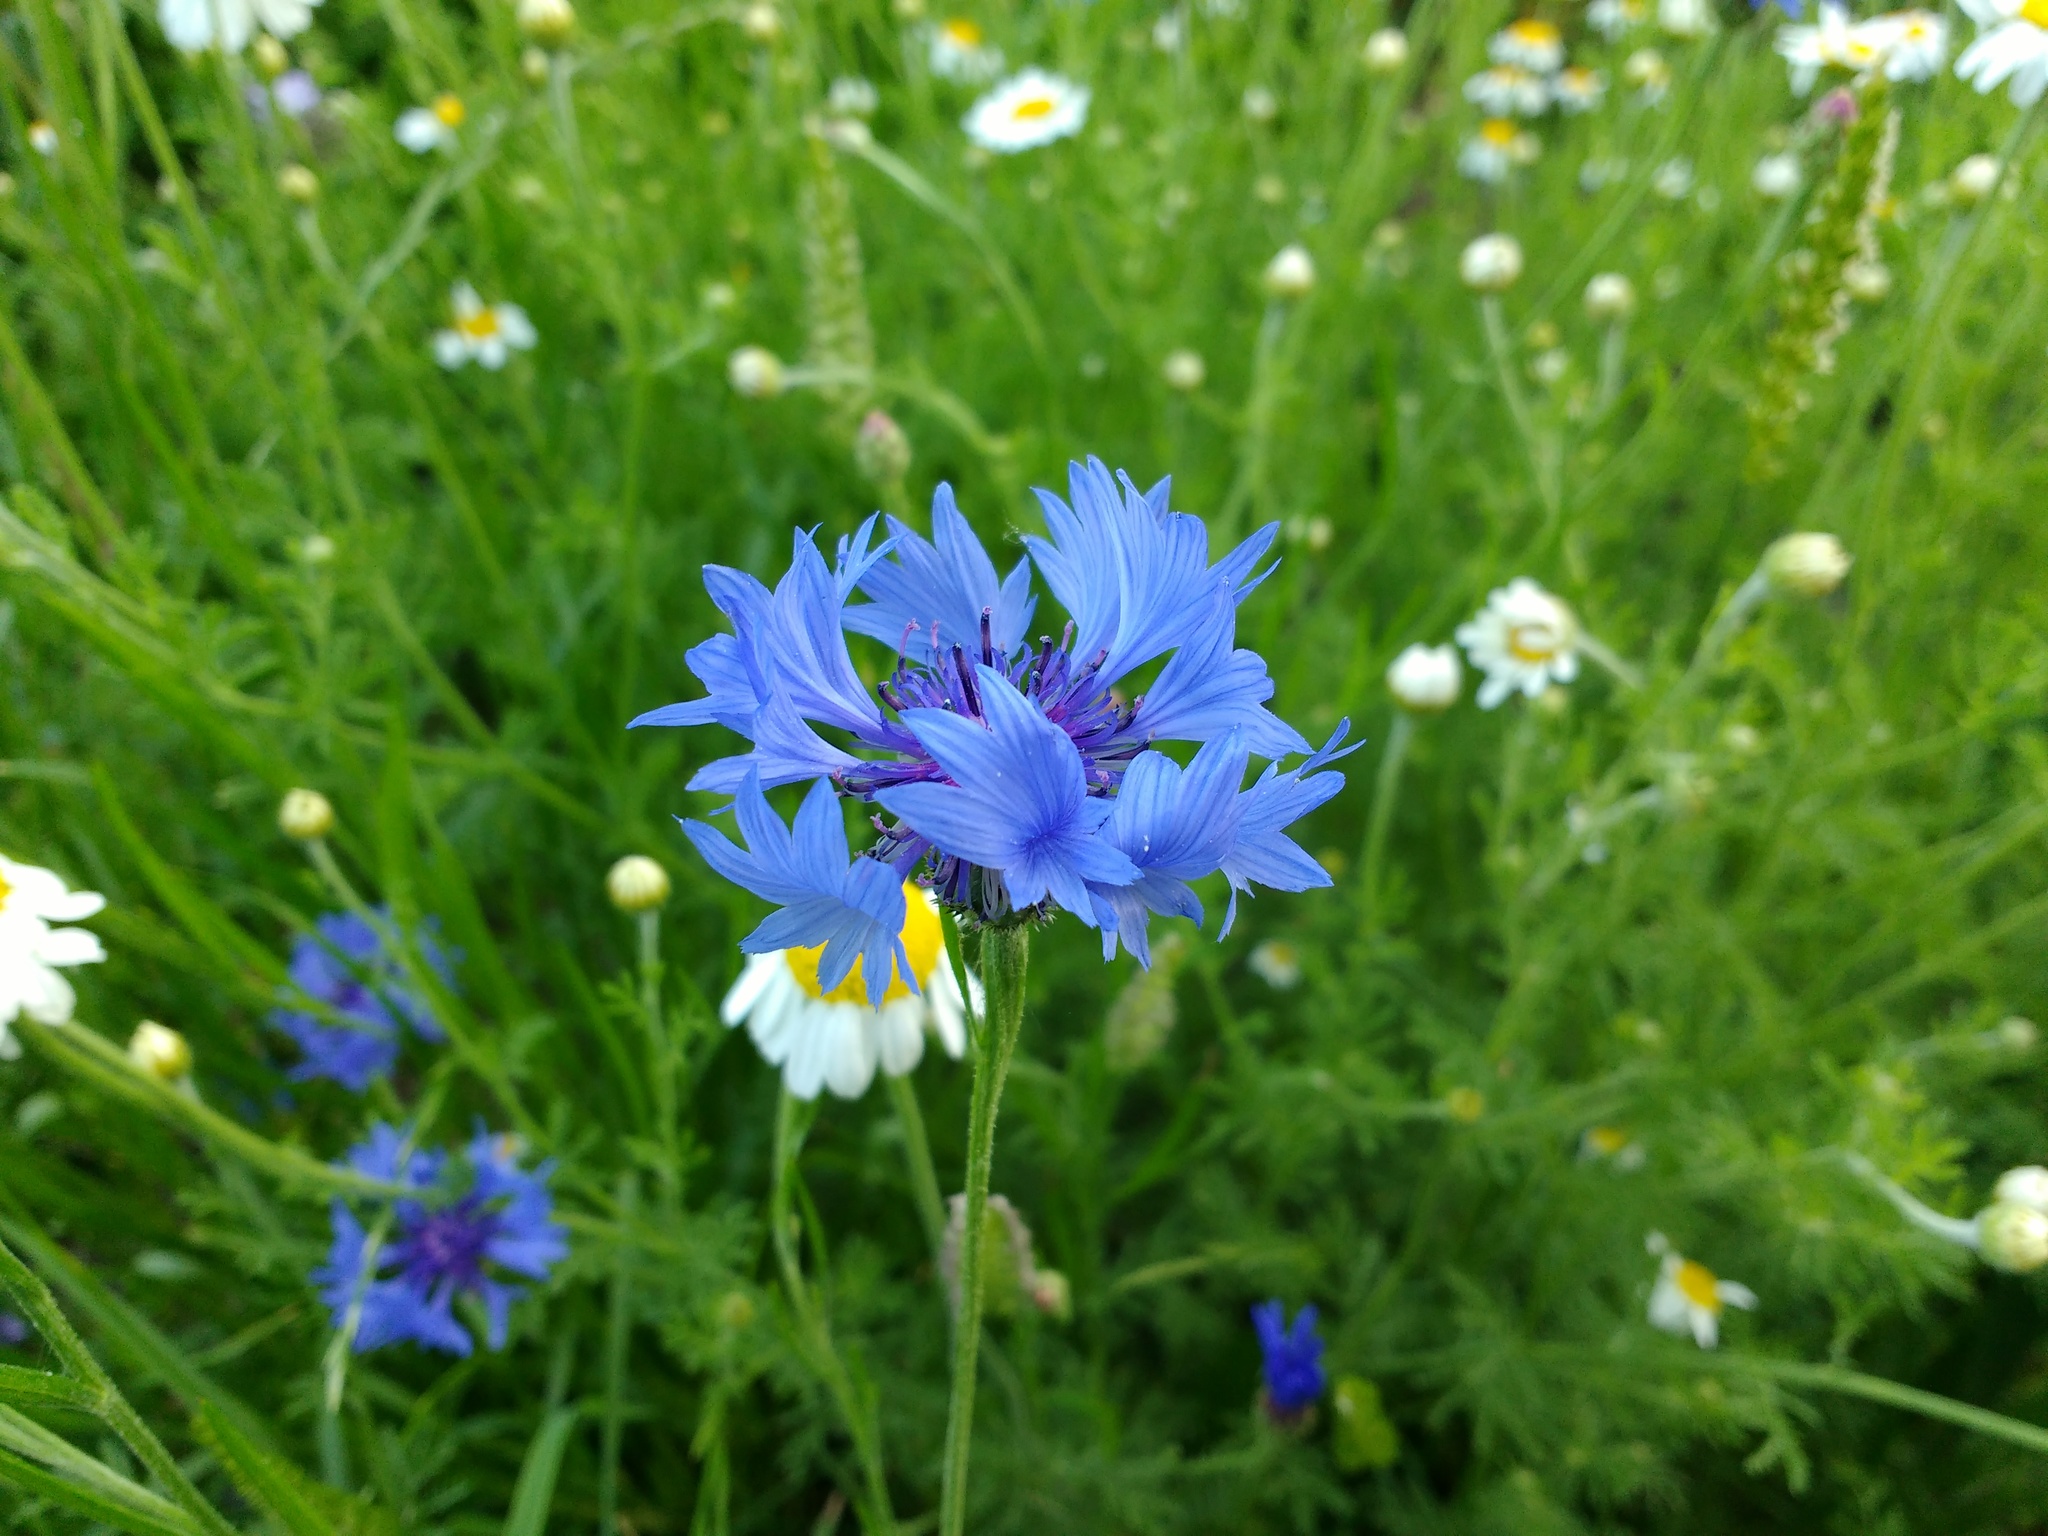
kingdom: Plantae
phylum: Tracheophyta
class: Magnoliopsida
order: Asterales
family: Asteraceae
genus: Centaurea
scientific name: Centaurea cyanus
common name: Cornflower
